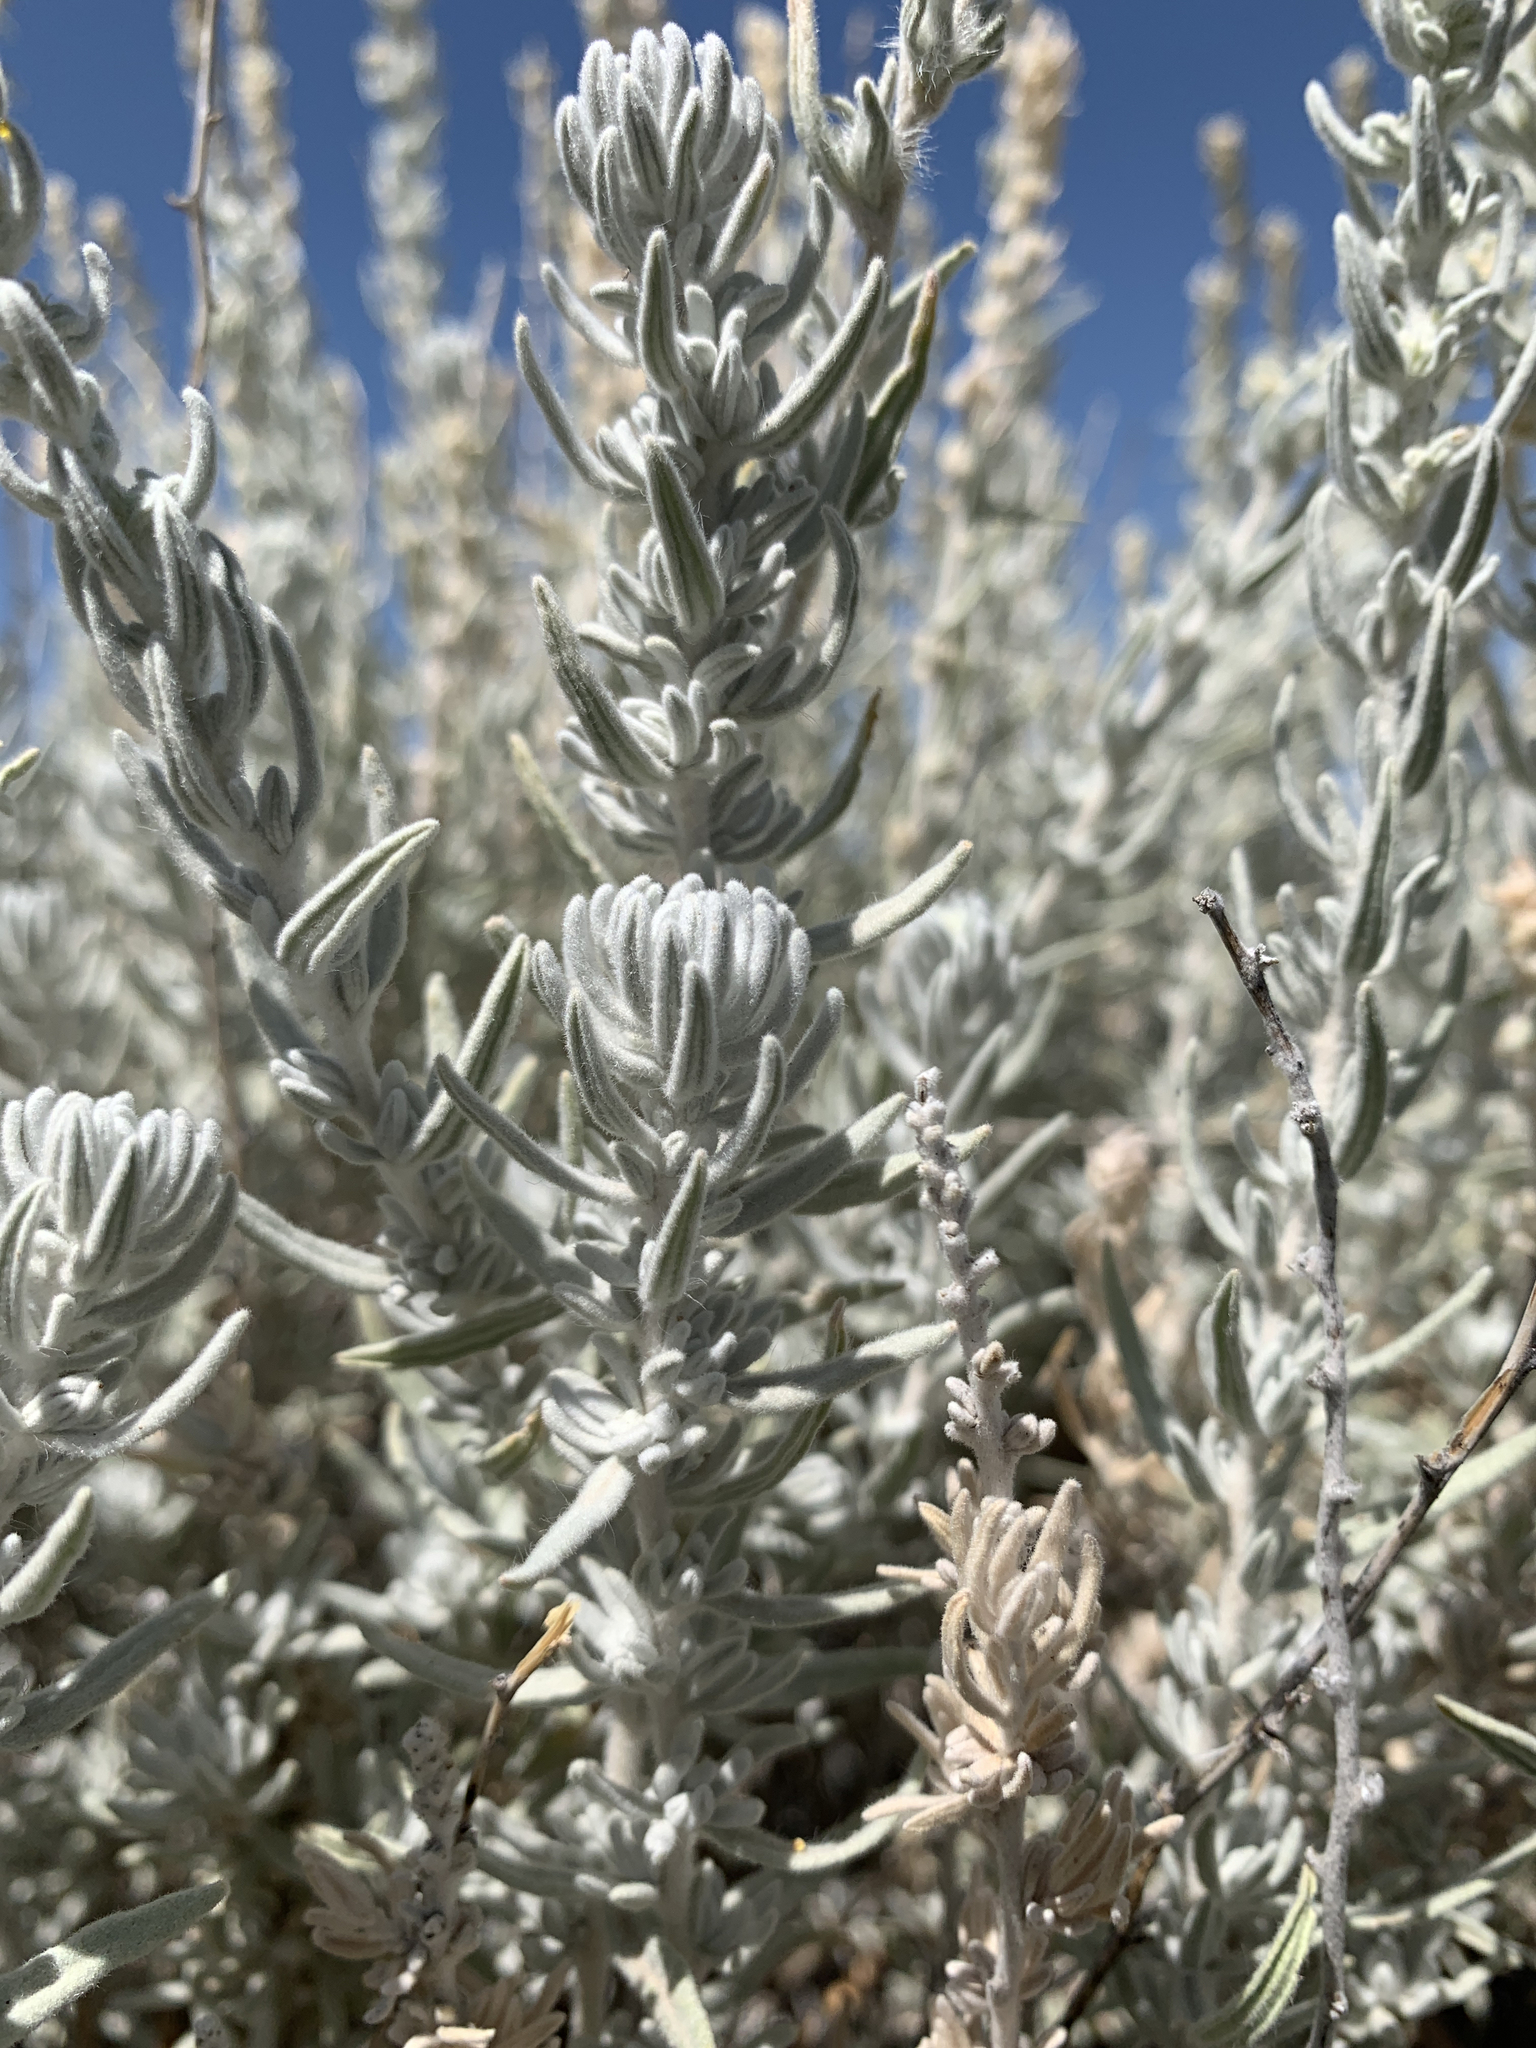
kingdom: Plantae
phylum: Tracheophyta
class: Magnoliopsida
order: Caryophyllales
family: Amaranthaceae
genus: Krascheninnikovia
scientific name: Krascheninnikovia lanata
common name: Winterfat
